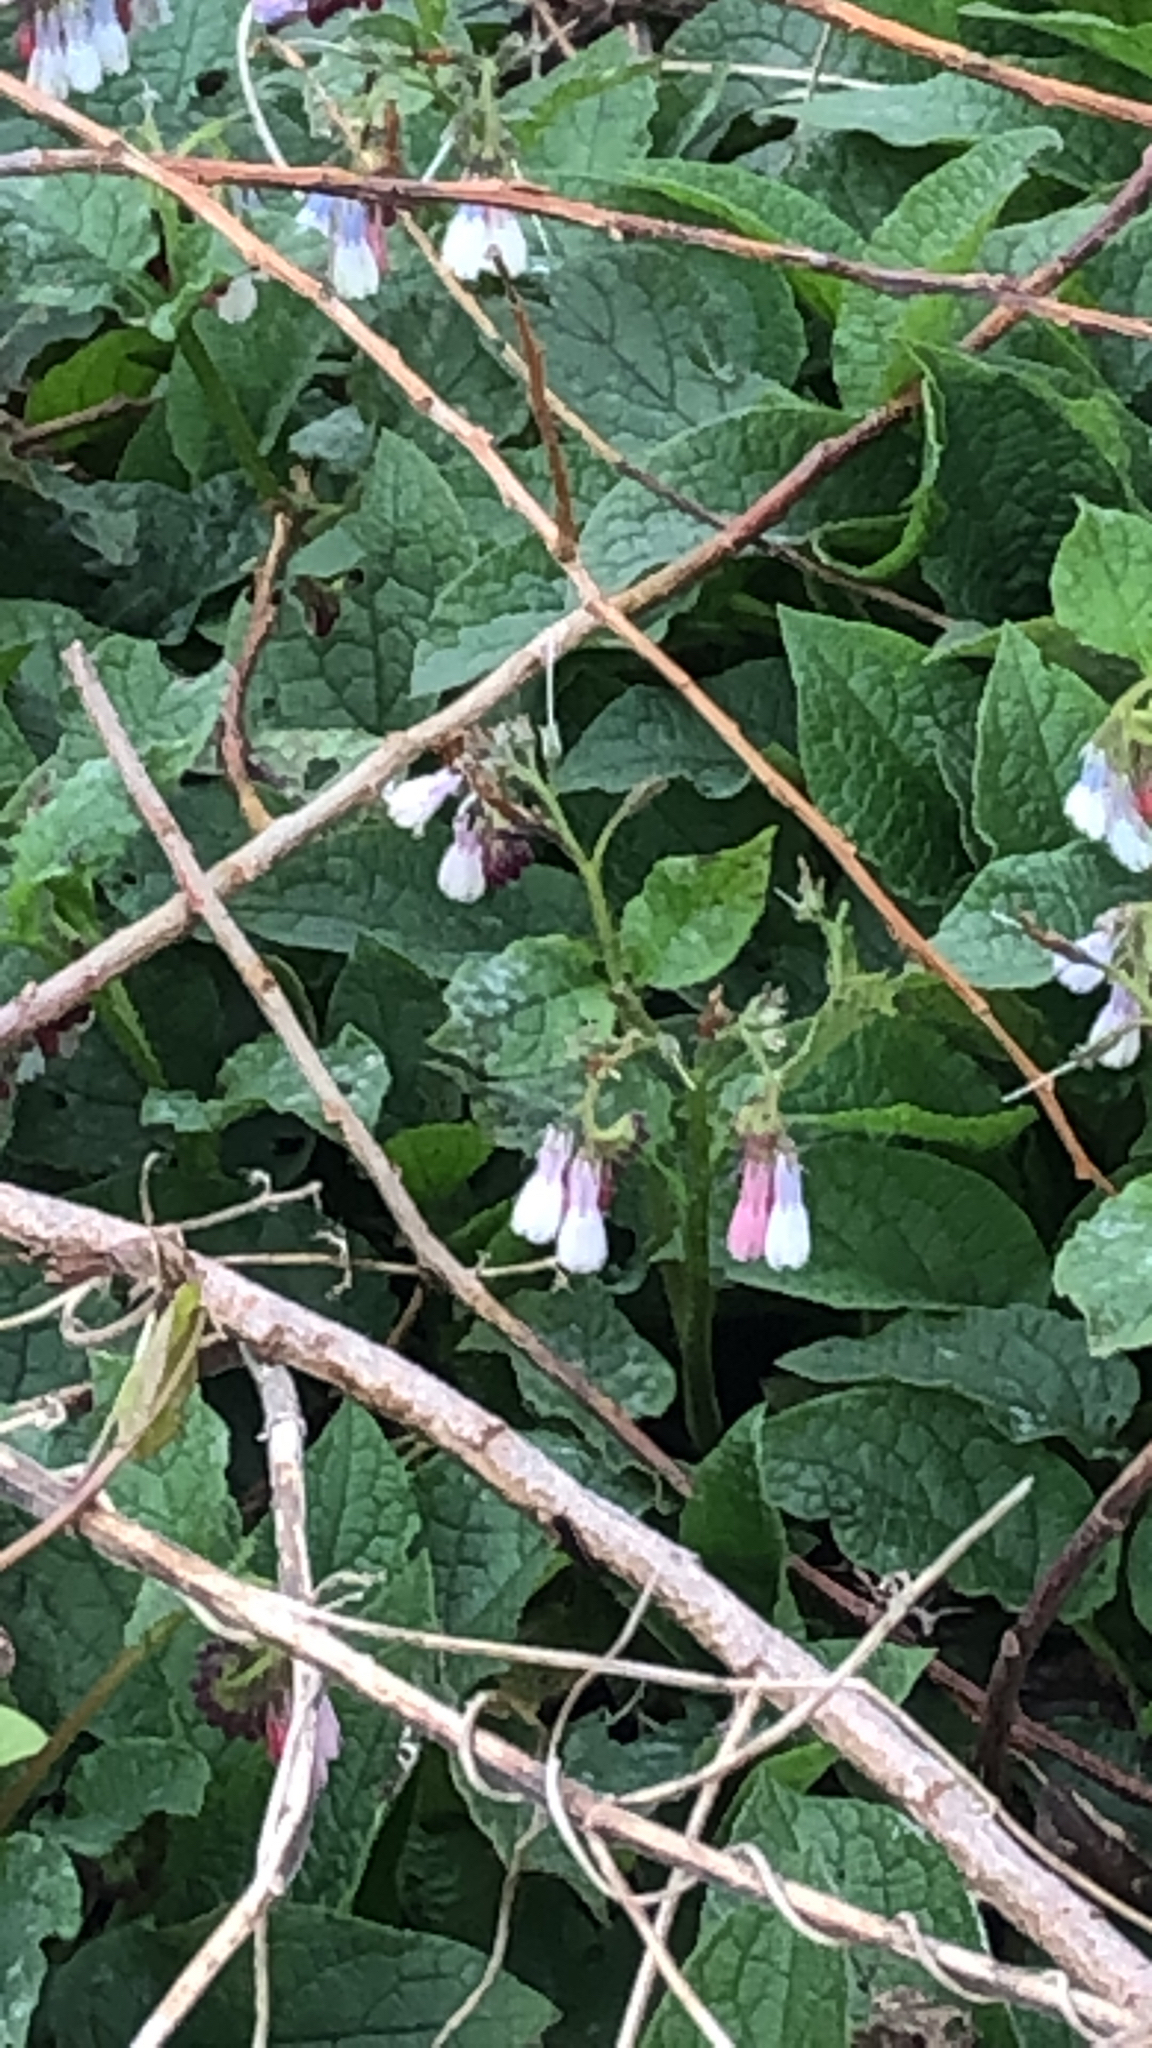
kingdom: Plantae
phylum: Tracheophyta
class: Magnoliopsida
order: Boraginales
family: Boraginaceae
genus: Symphytum
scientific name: Symphytum hidcotense
